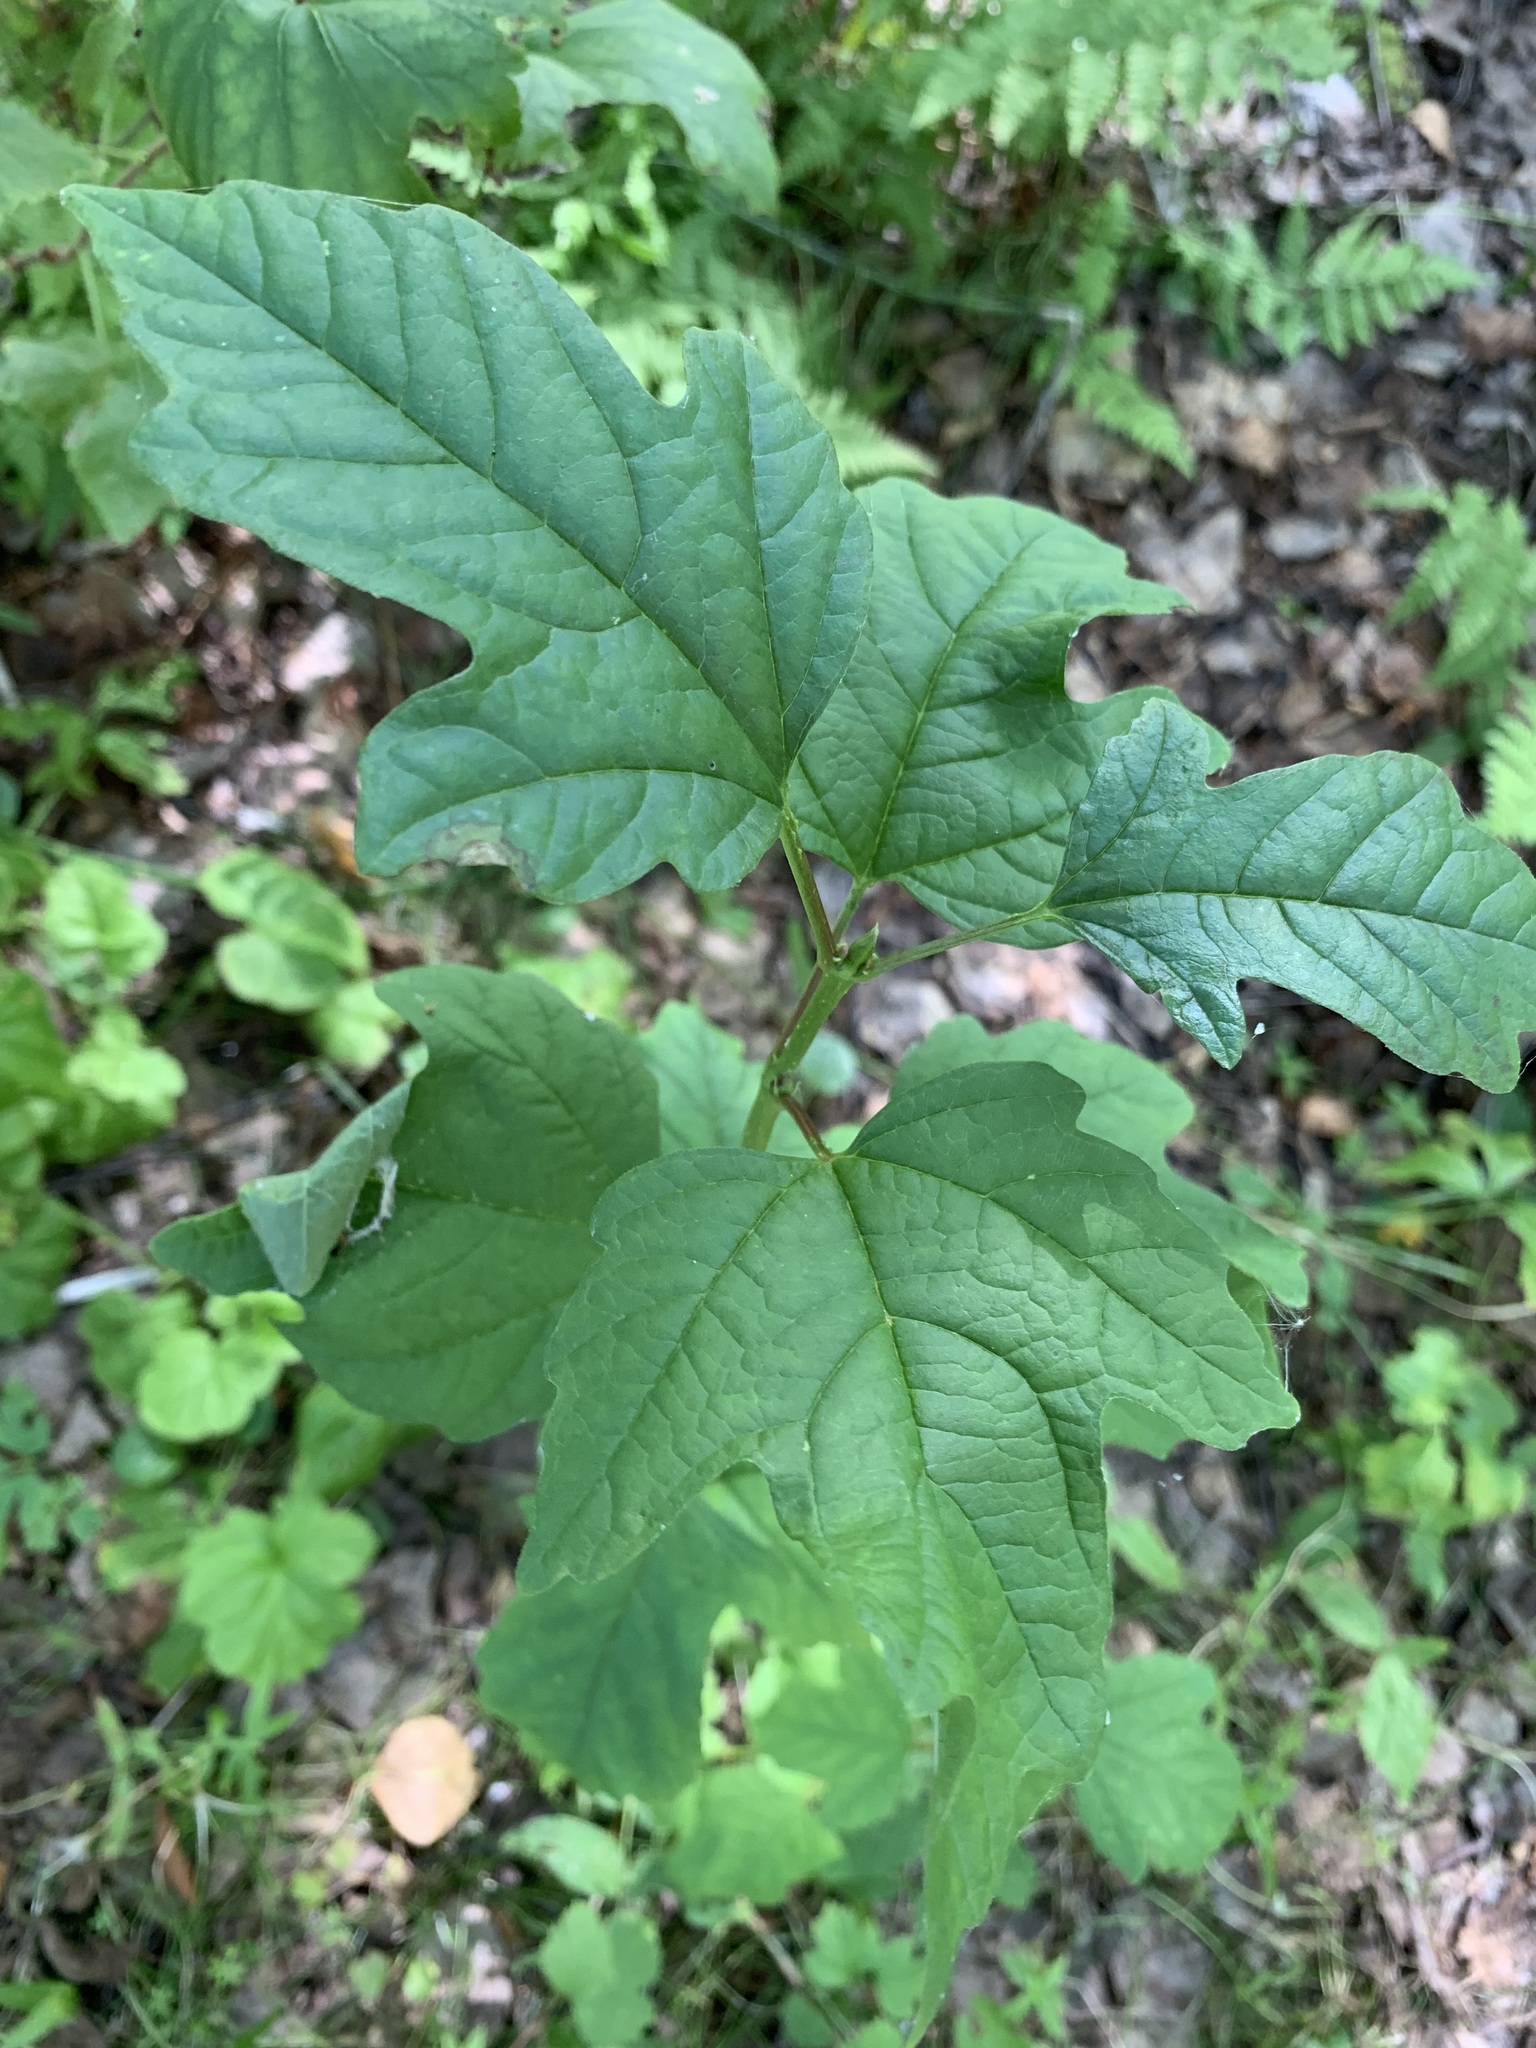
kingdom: Plantae
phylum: Tracheophyta
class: Magnoliopsida
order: Dipsacales
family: Viburnaceae
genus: Viburnum
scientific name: Viburnum opulus
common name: Guelder-rose
